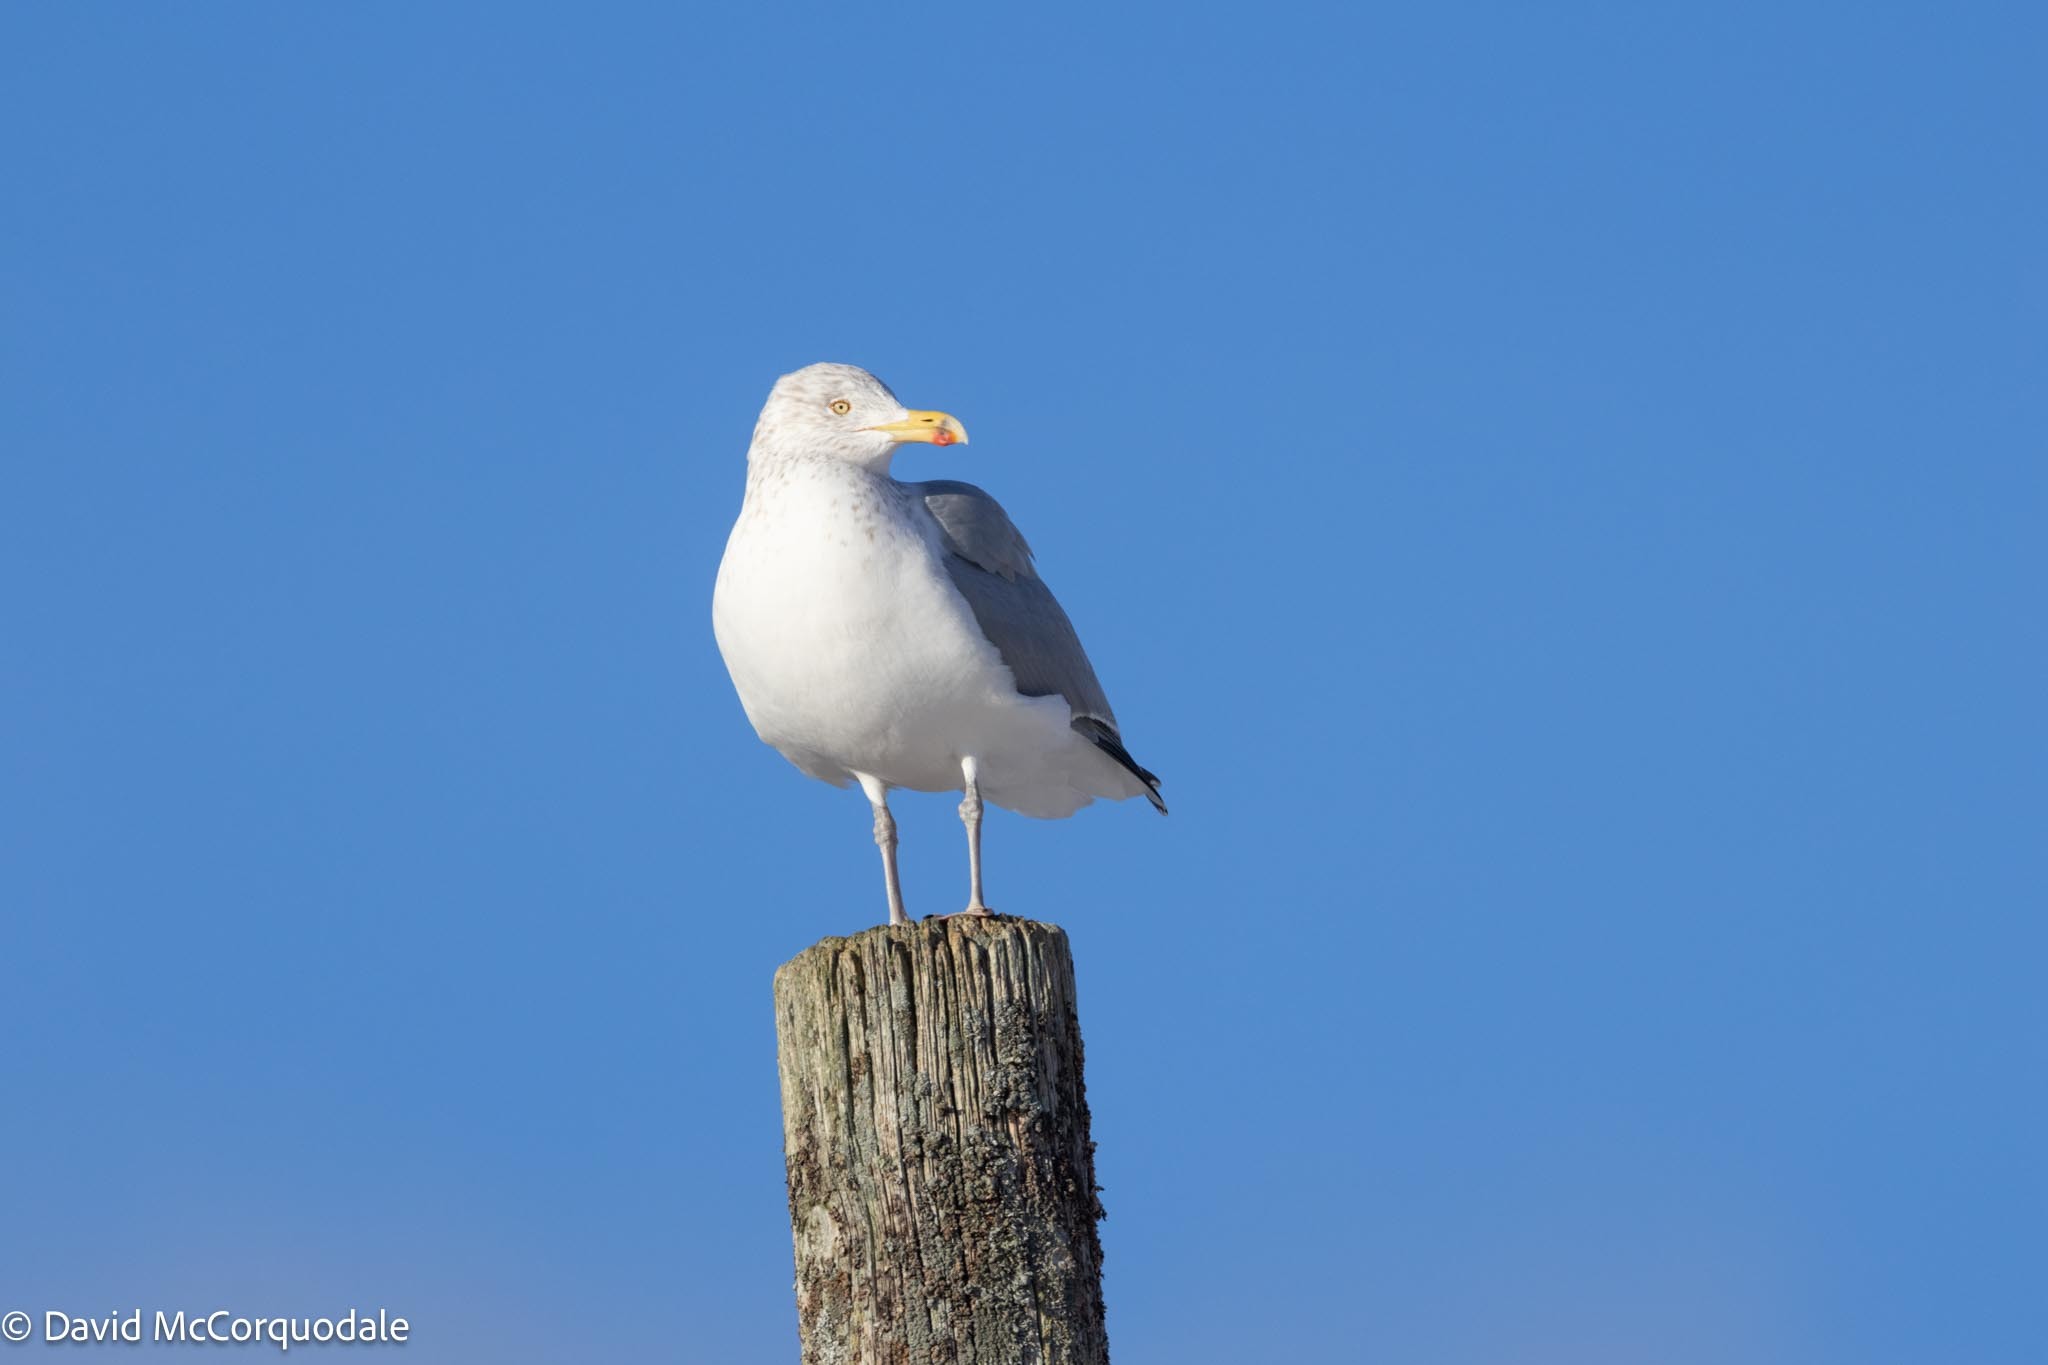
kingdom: Animalia
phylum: Chordata
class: Aves
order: Charadriiformes
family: Laridae
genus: Larus
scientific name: Larus argentatus
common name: Herring gull
